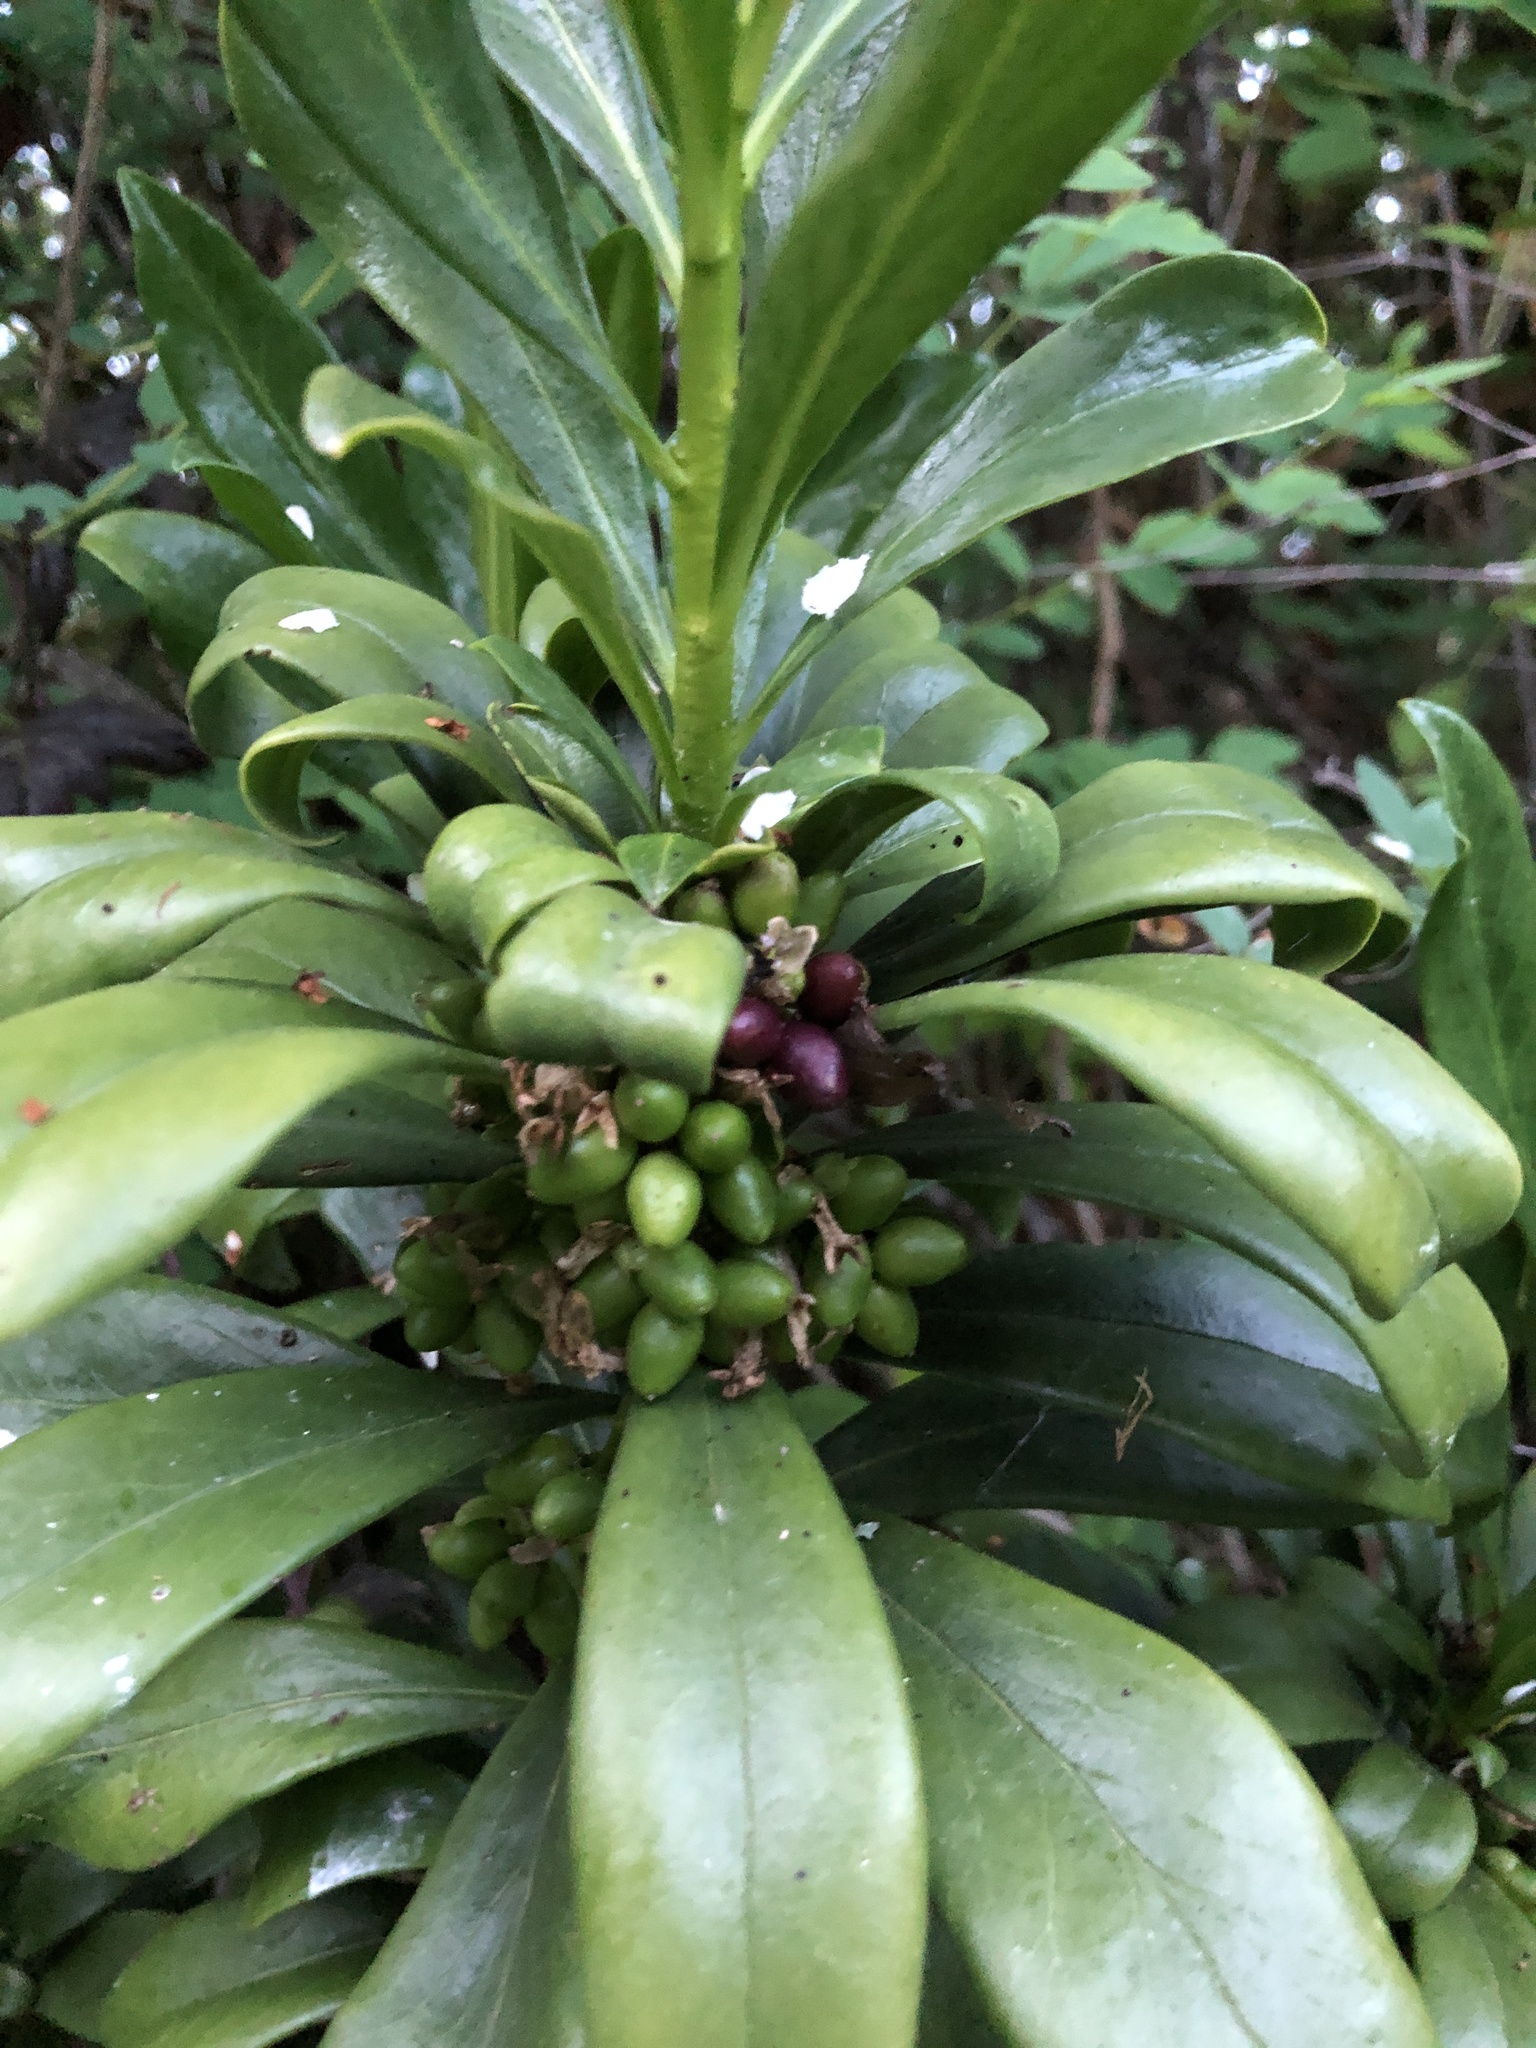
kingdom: Plantae
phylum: Tracheophyta
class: Magnoliopsida
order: Malvales
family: Thymelaeaceae
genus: Daphne
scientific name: Daphne laureola
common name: Spurge-laurel
